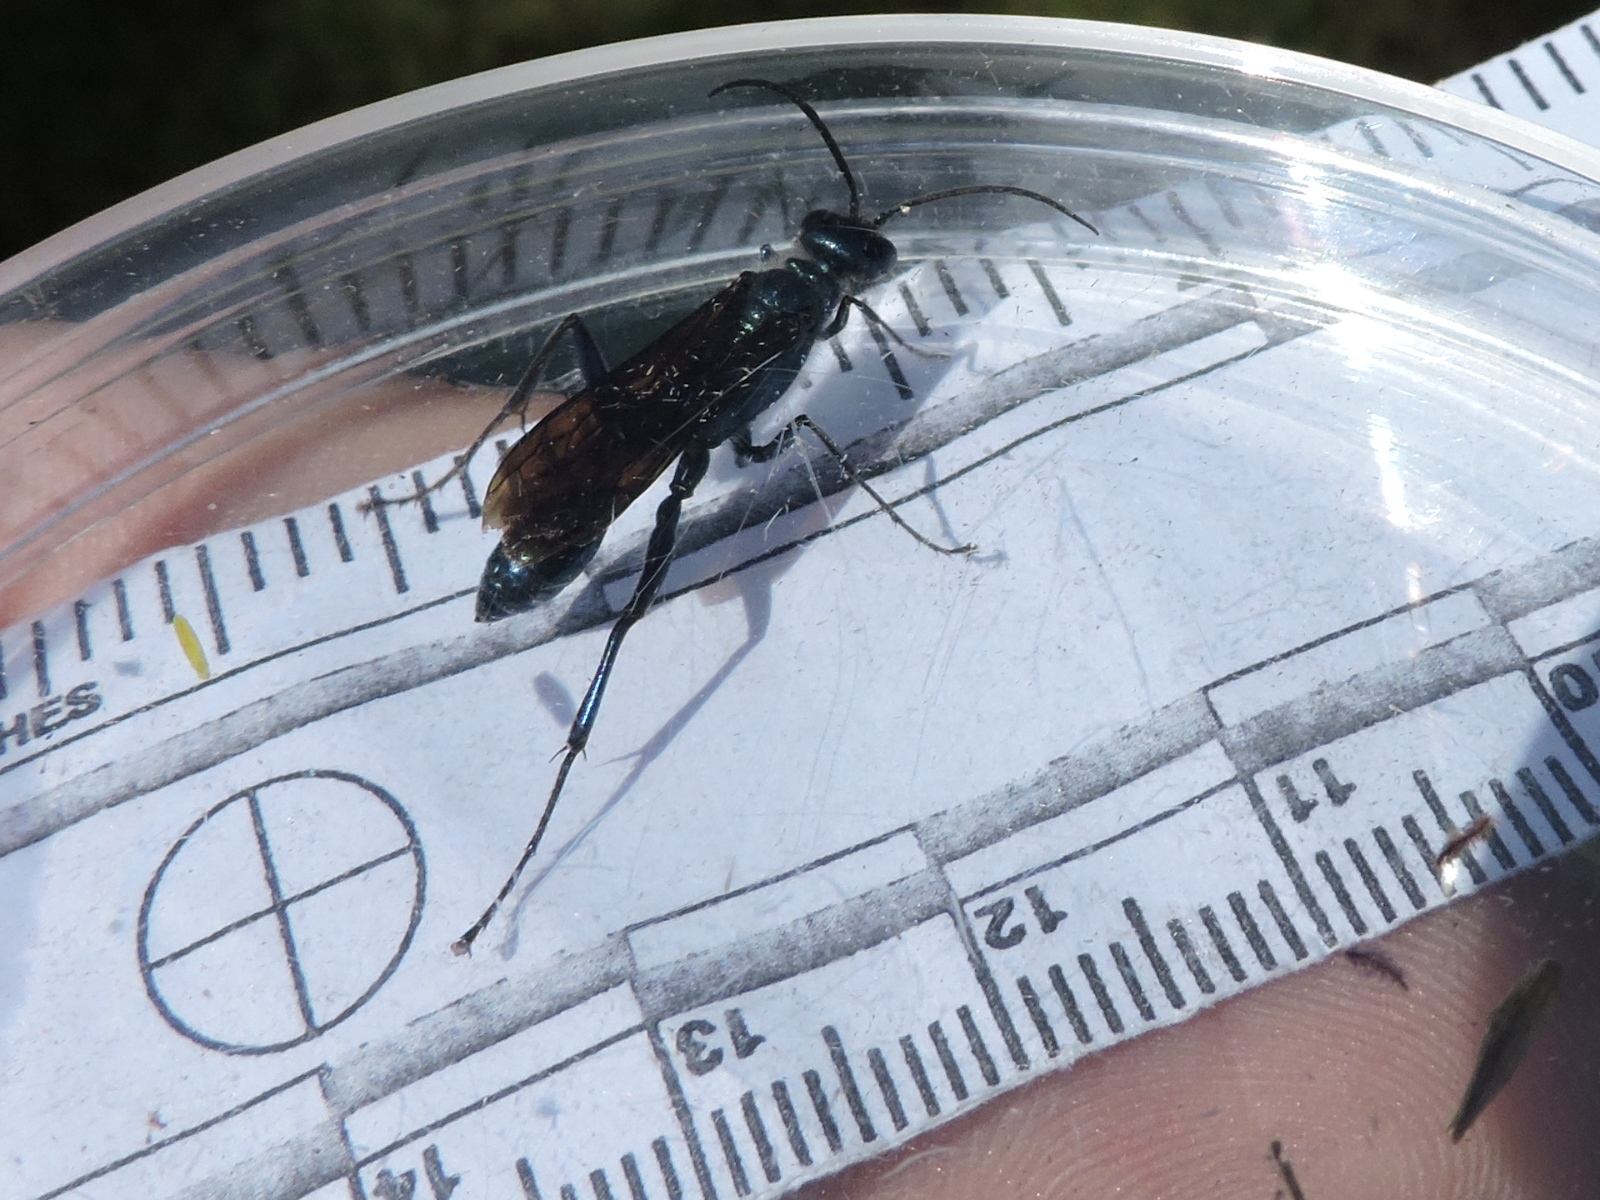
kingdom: Animalia
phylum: Arthropoda
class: Insecta
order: Hymenoptera
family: Sphecidae
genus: Chalybion
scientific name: Chalybion californicum
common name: Mud dauber
